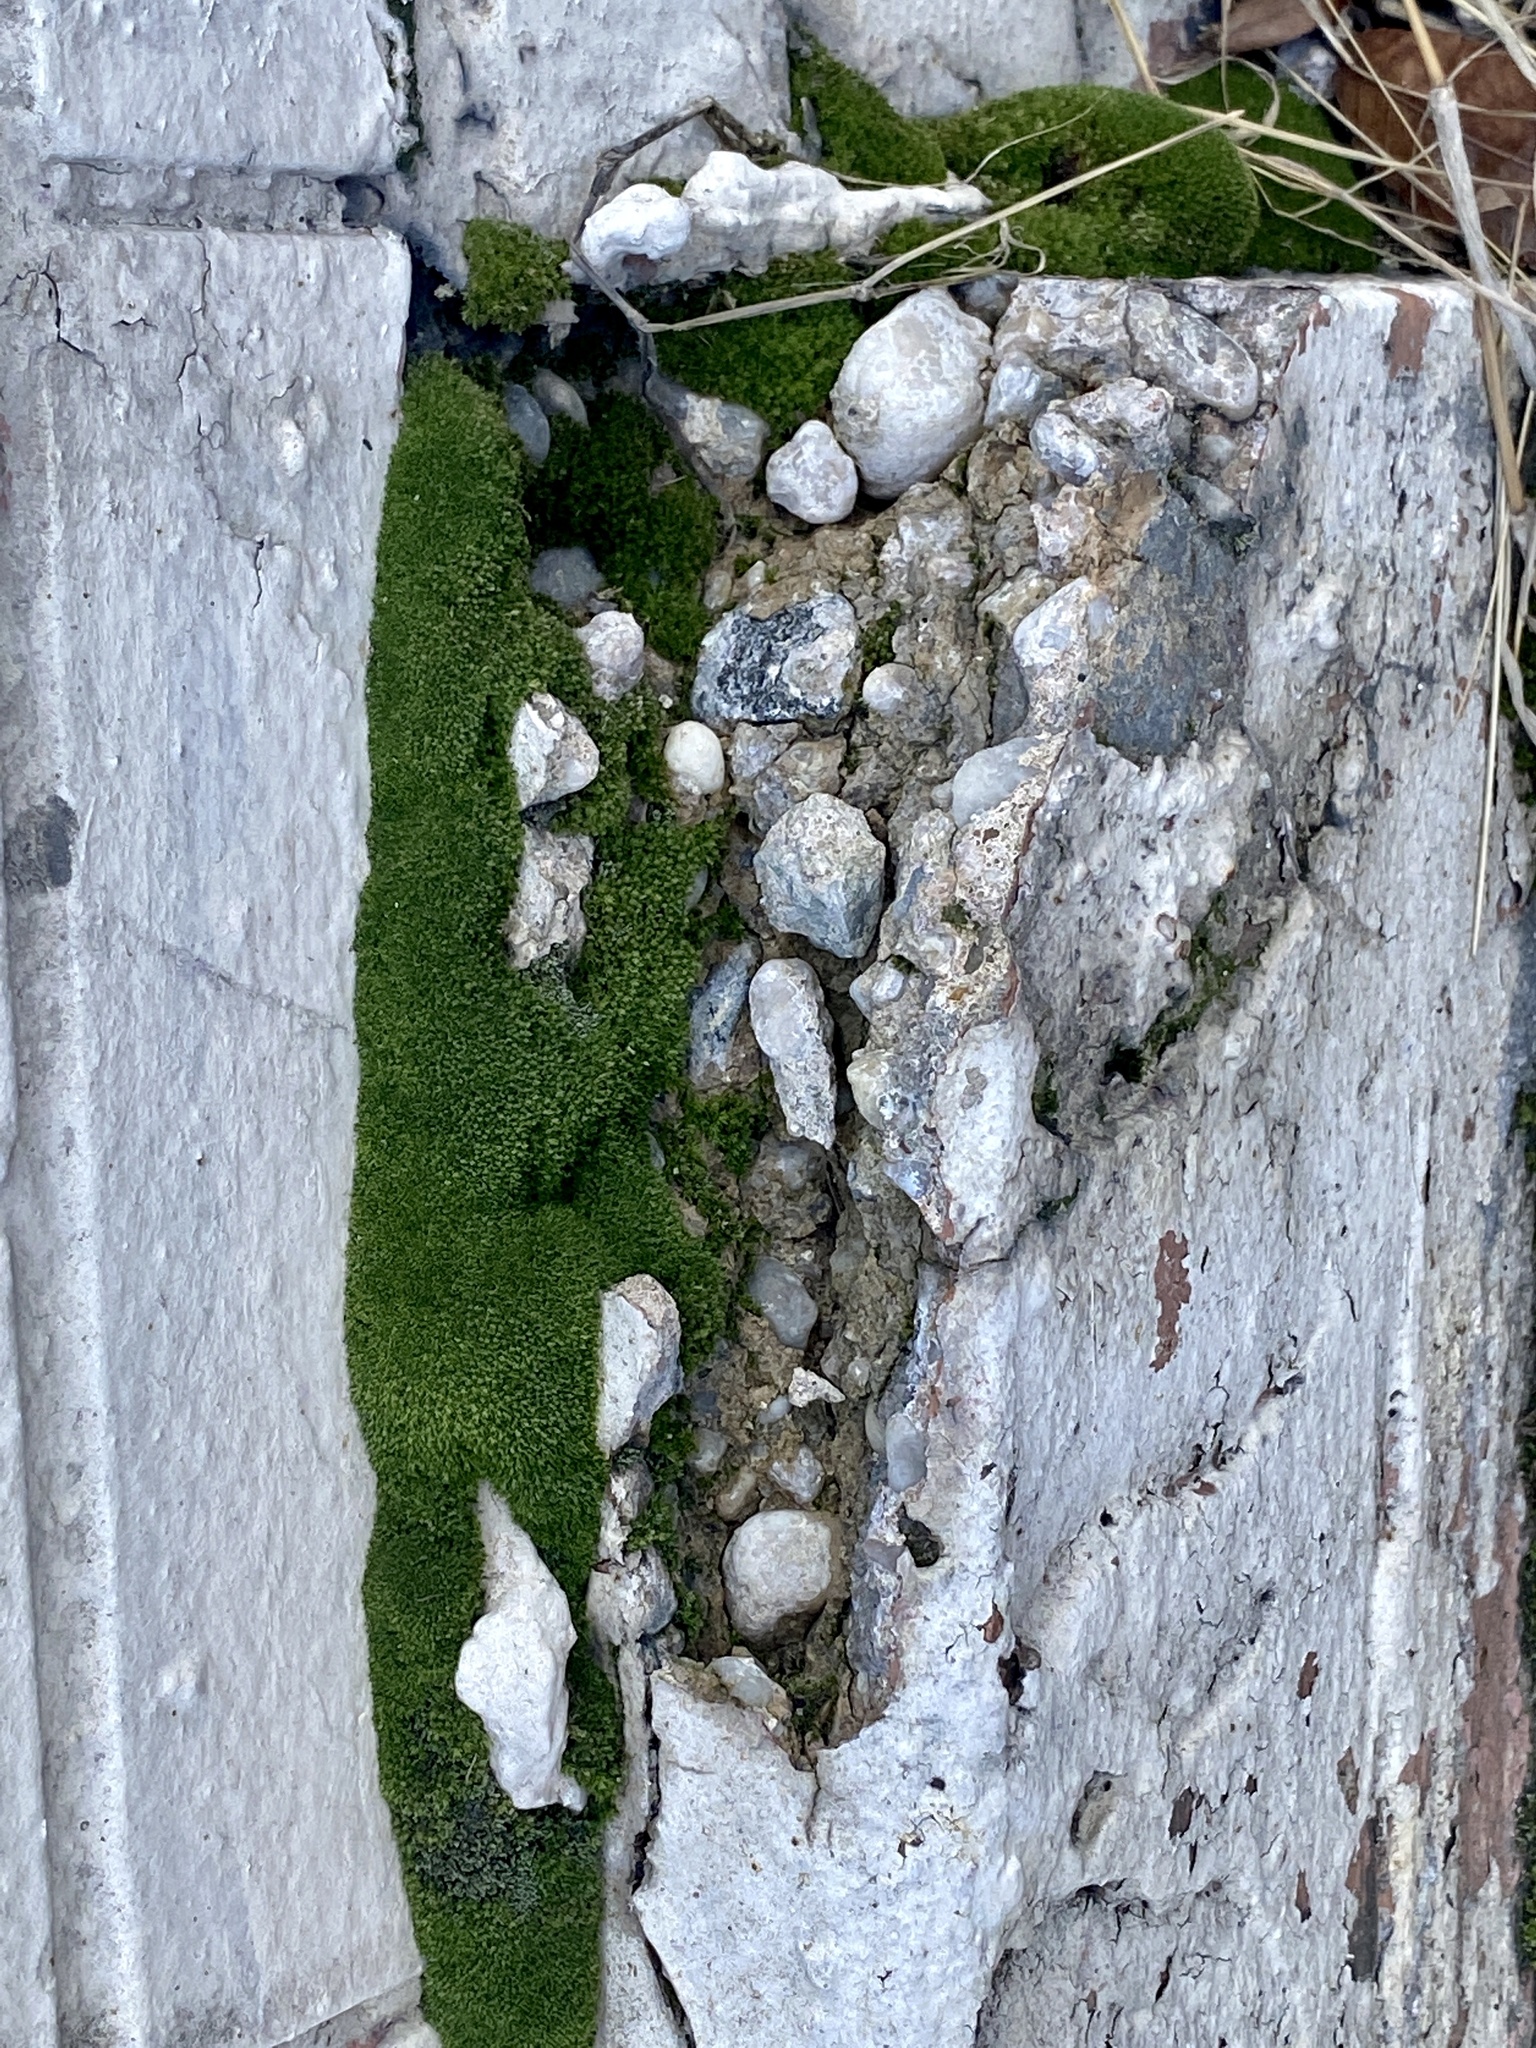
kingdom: Plantae
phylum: Bryophyta
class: Bryopsida
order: Bryales
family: Bryaceae
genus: Bryum
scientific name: Bryum argenteum
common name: Silver-moss
